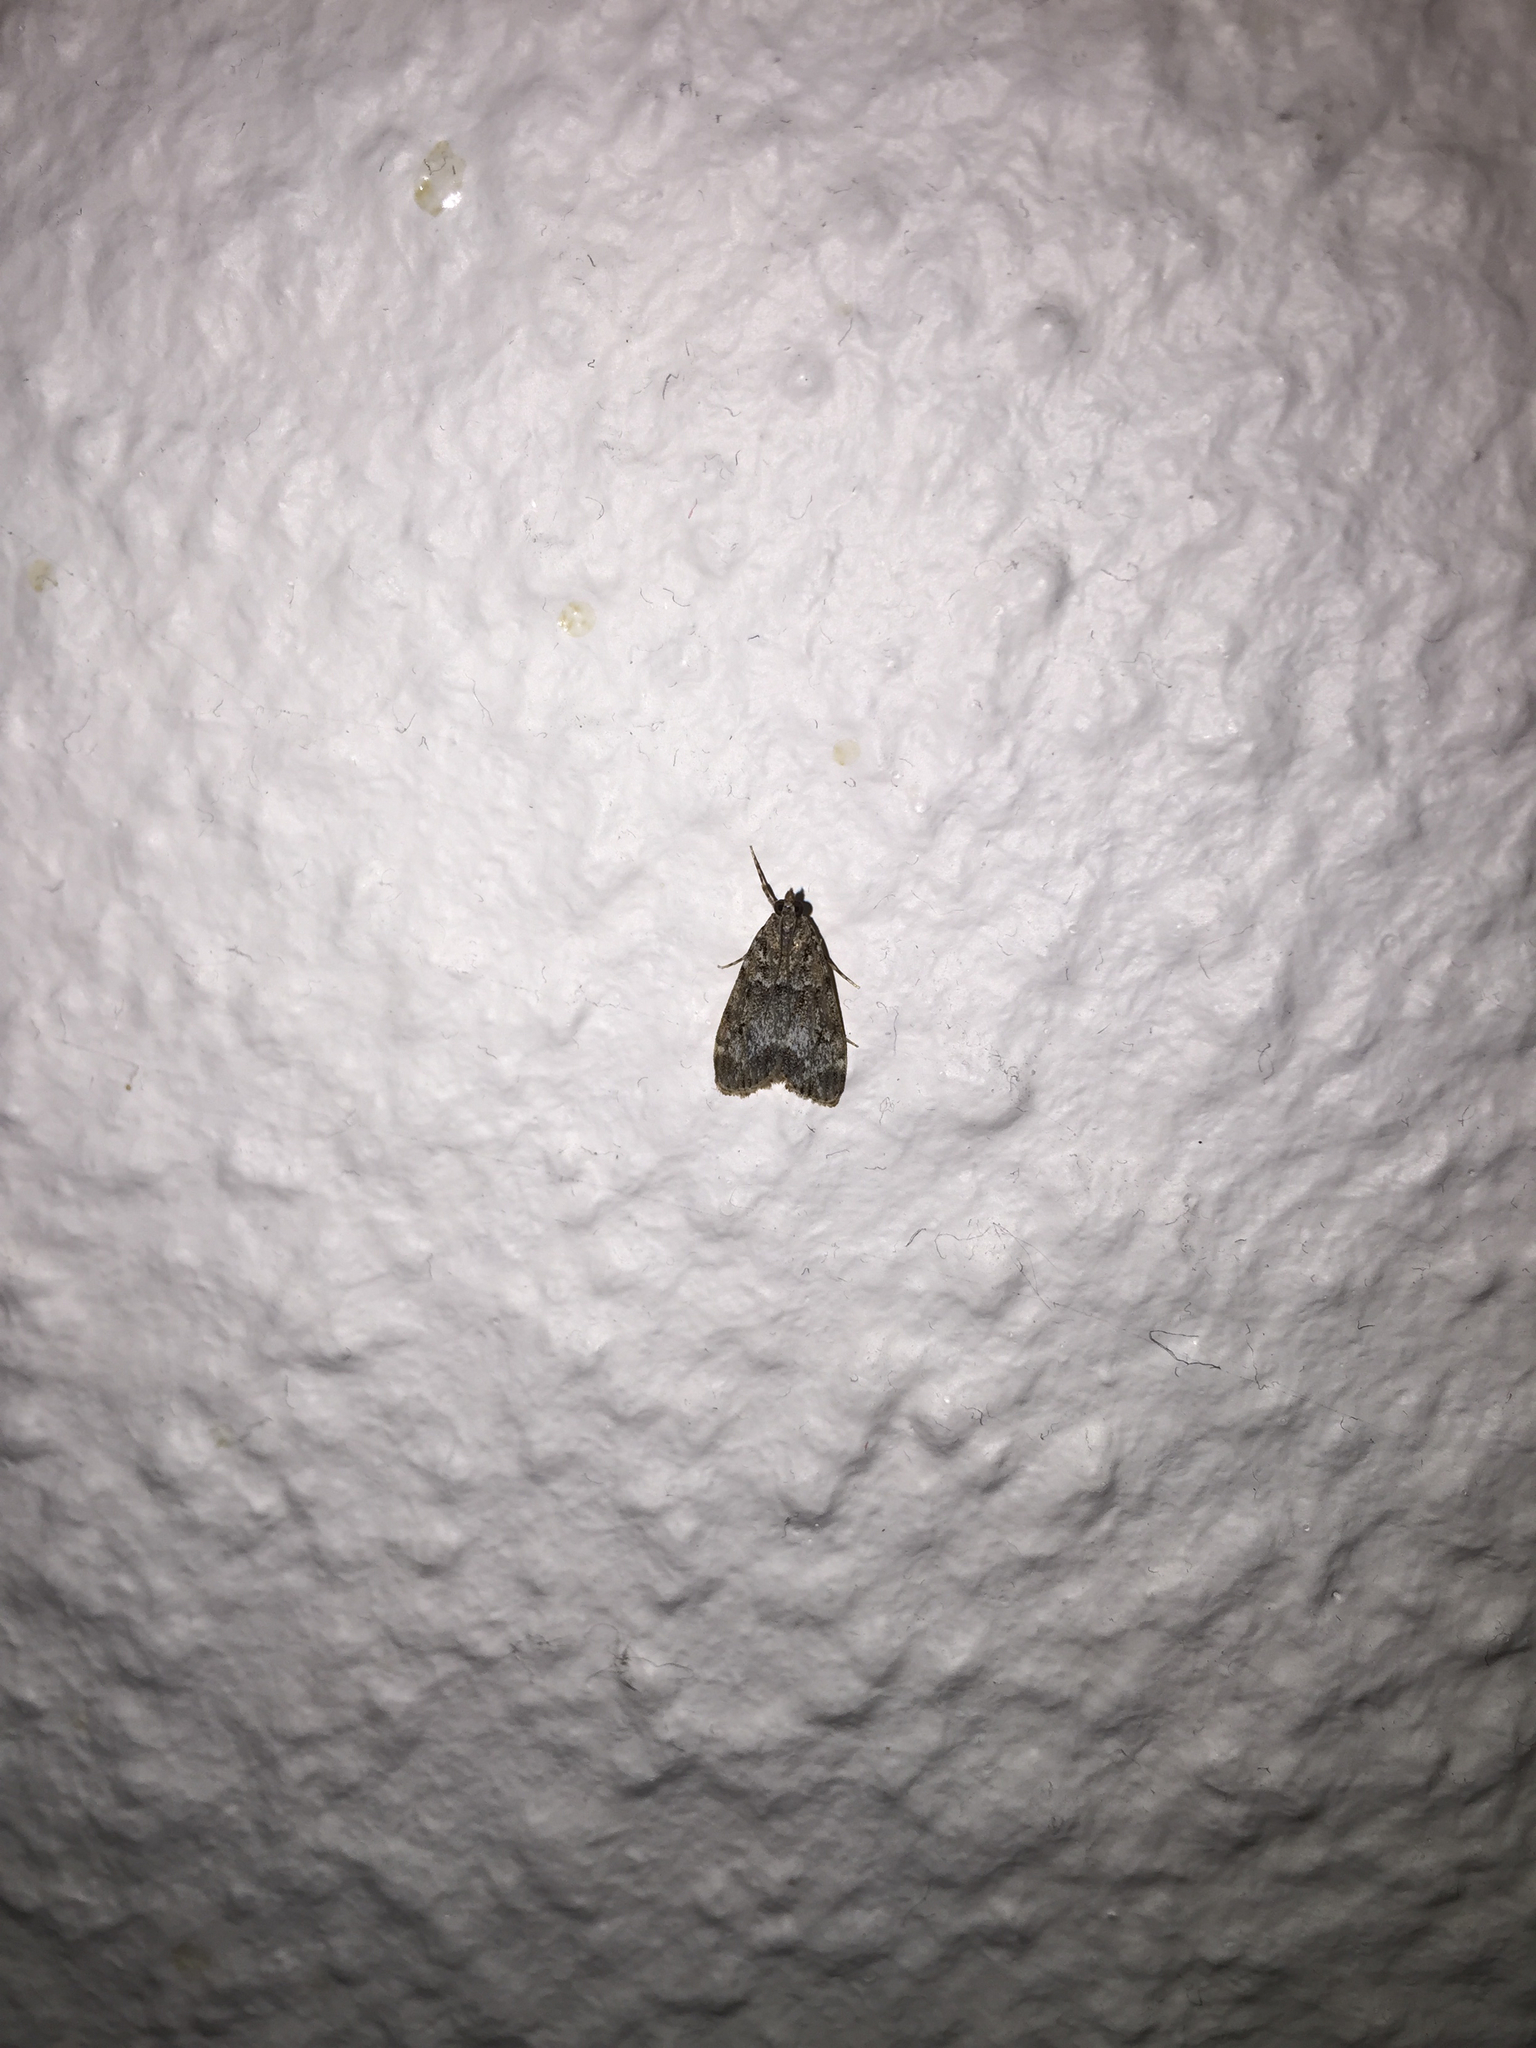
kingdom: Animalia
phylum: Arthropoda
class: Insecta
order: Lepidoptera
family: Crambidae
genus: Eudonia
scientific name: Eudonia mercurella
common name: Small grey
